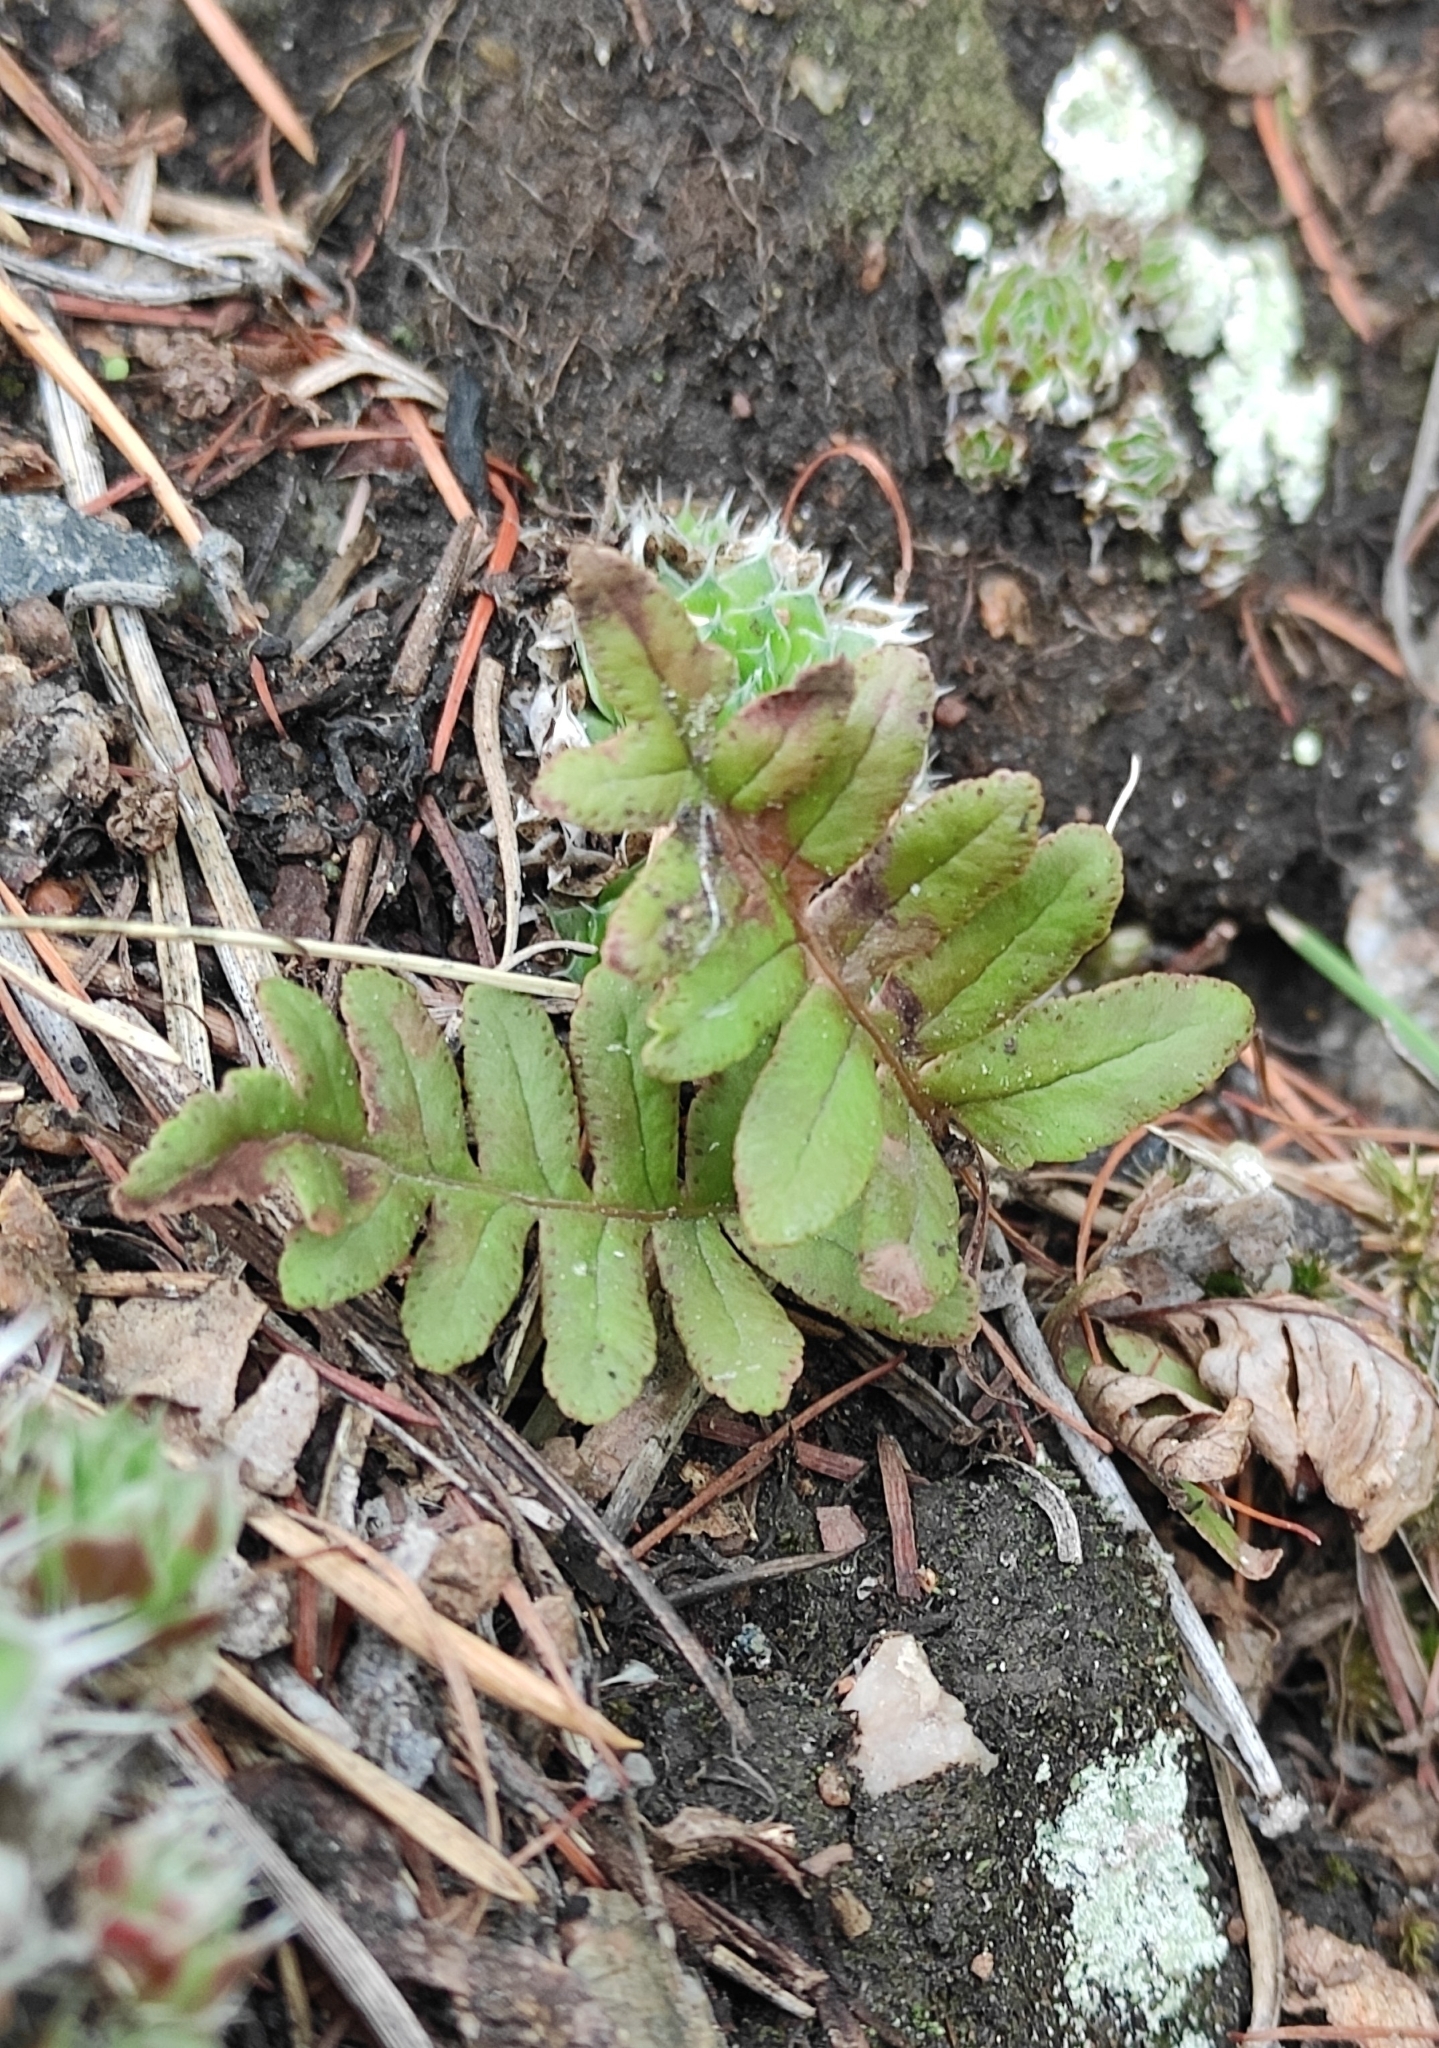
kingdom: Plantae
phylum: Tracheophyta
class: Polypodiopsida
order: Polypodiales
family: Polypodiaceae
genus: Polypodium
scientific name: Polypodium sibiricum
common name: Siberian polypody
